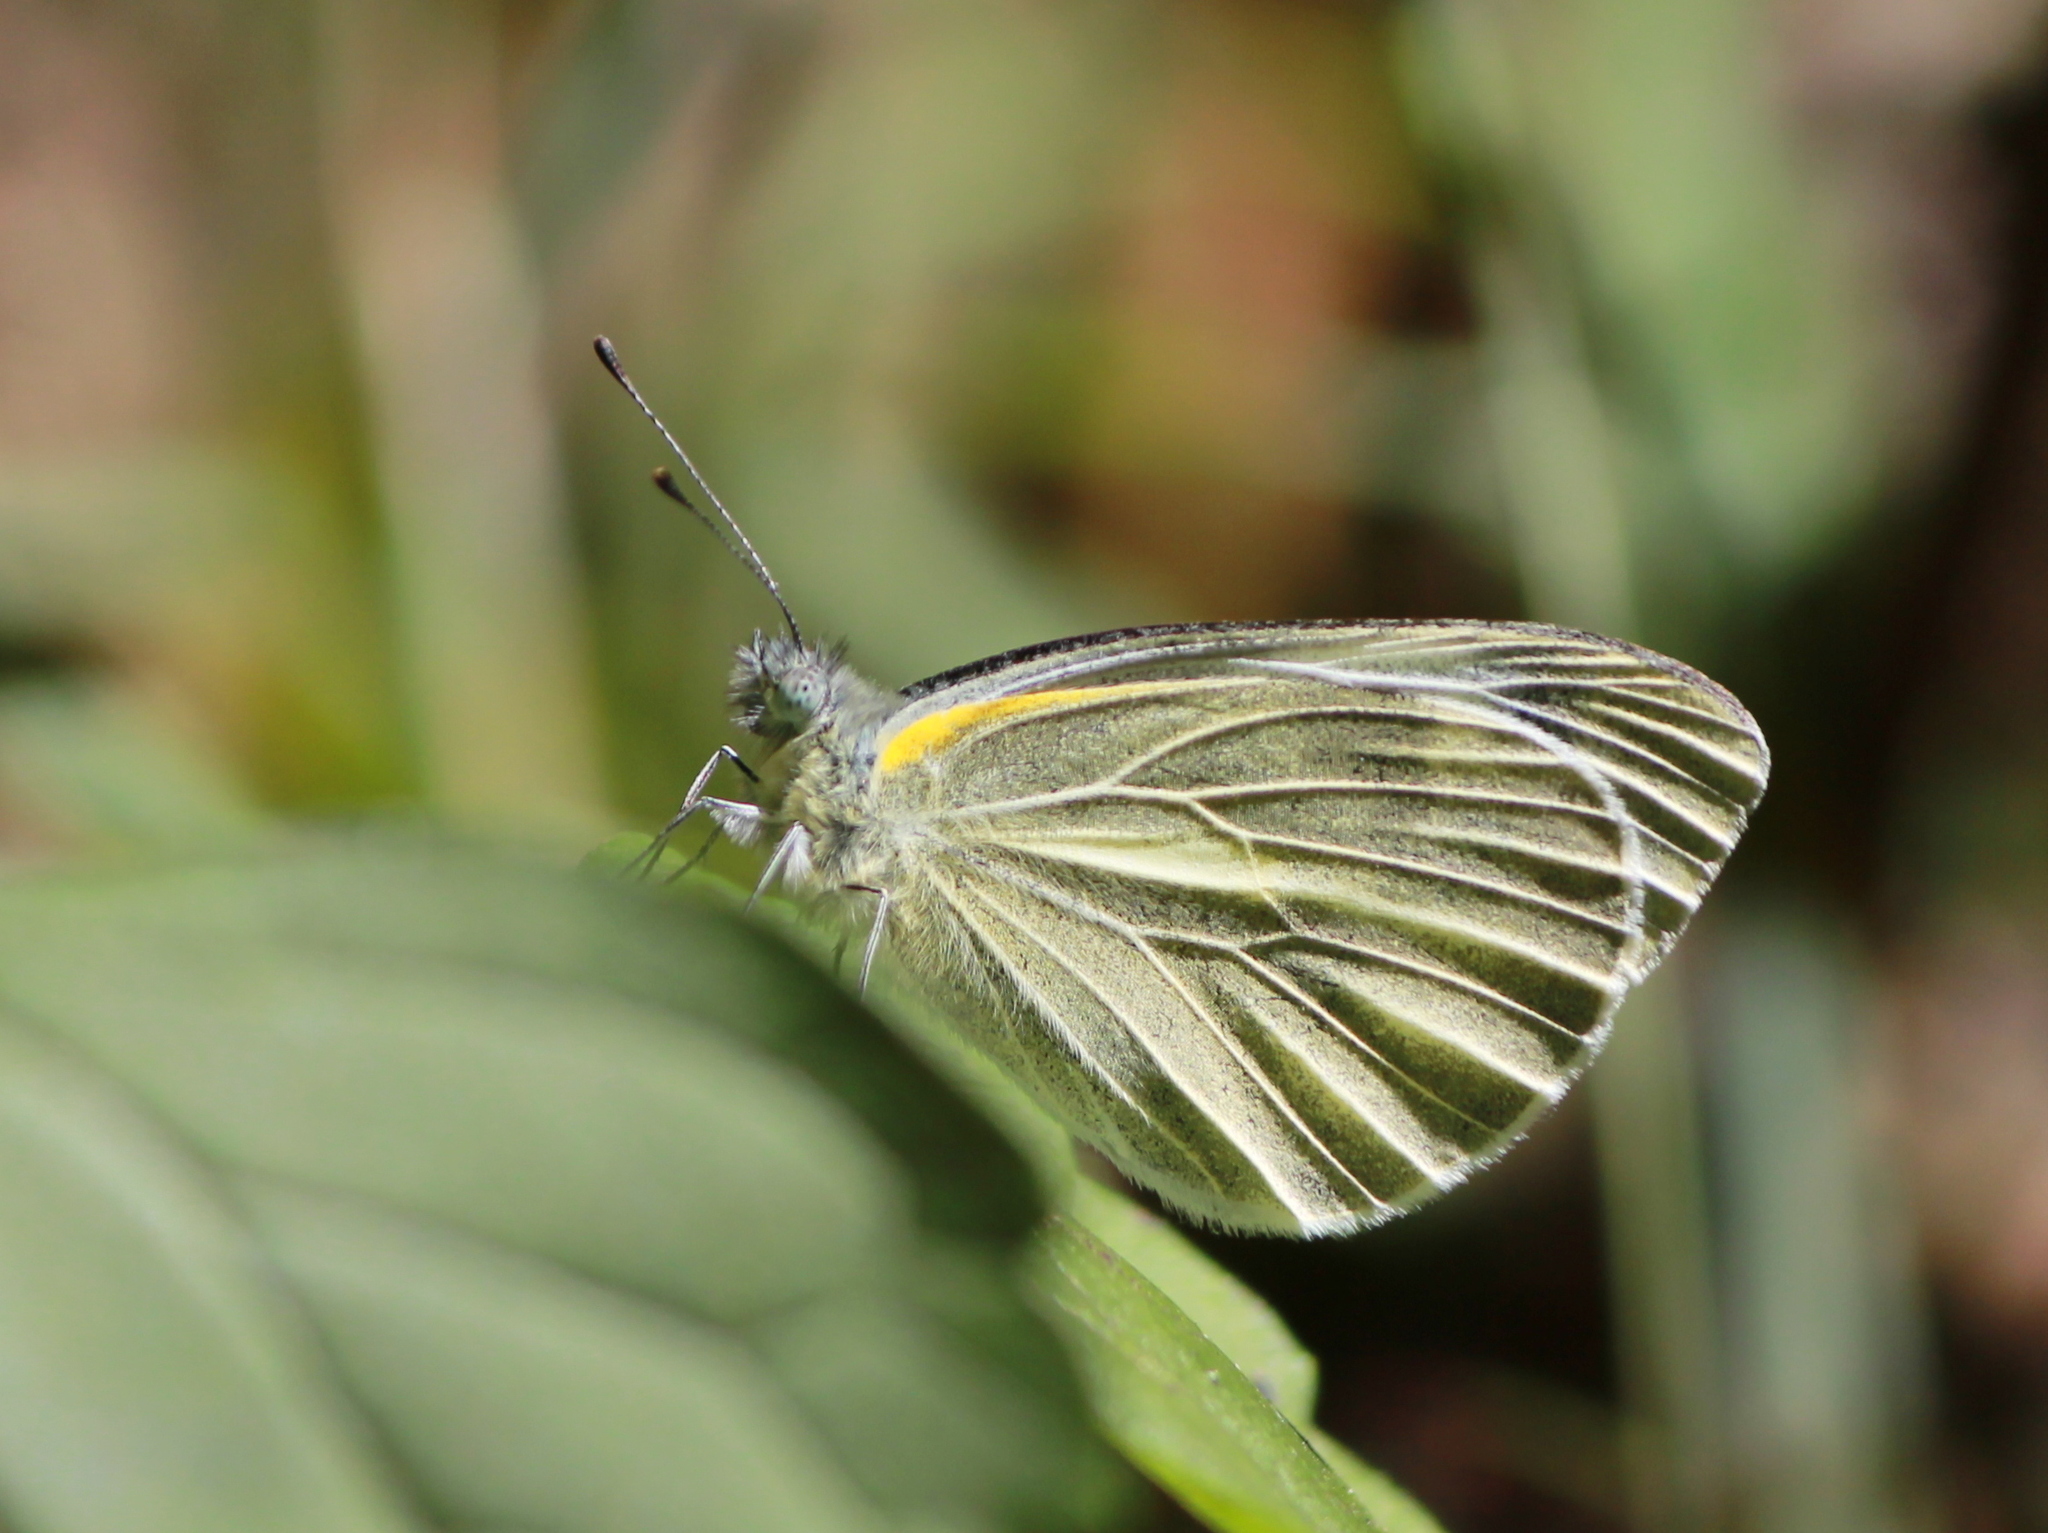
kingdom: Animalia
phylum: Arthropoda
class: Insecta
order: Lepidoptera
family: Pieridae
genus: Pieris
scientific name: Pieris canidia
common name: Indian cabbage white
